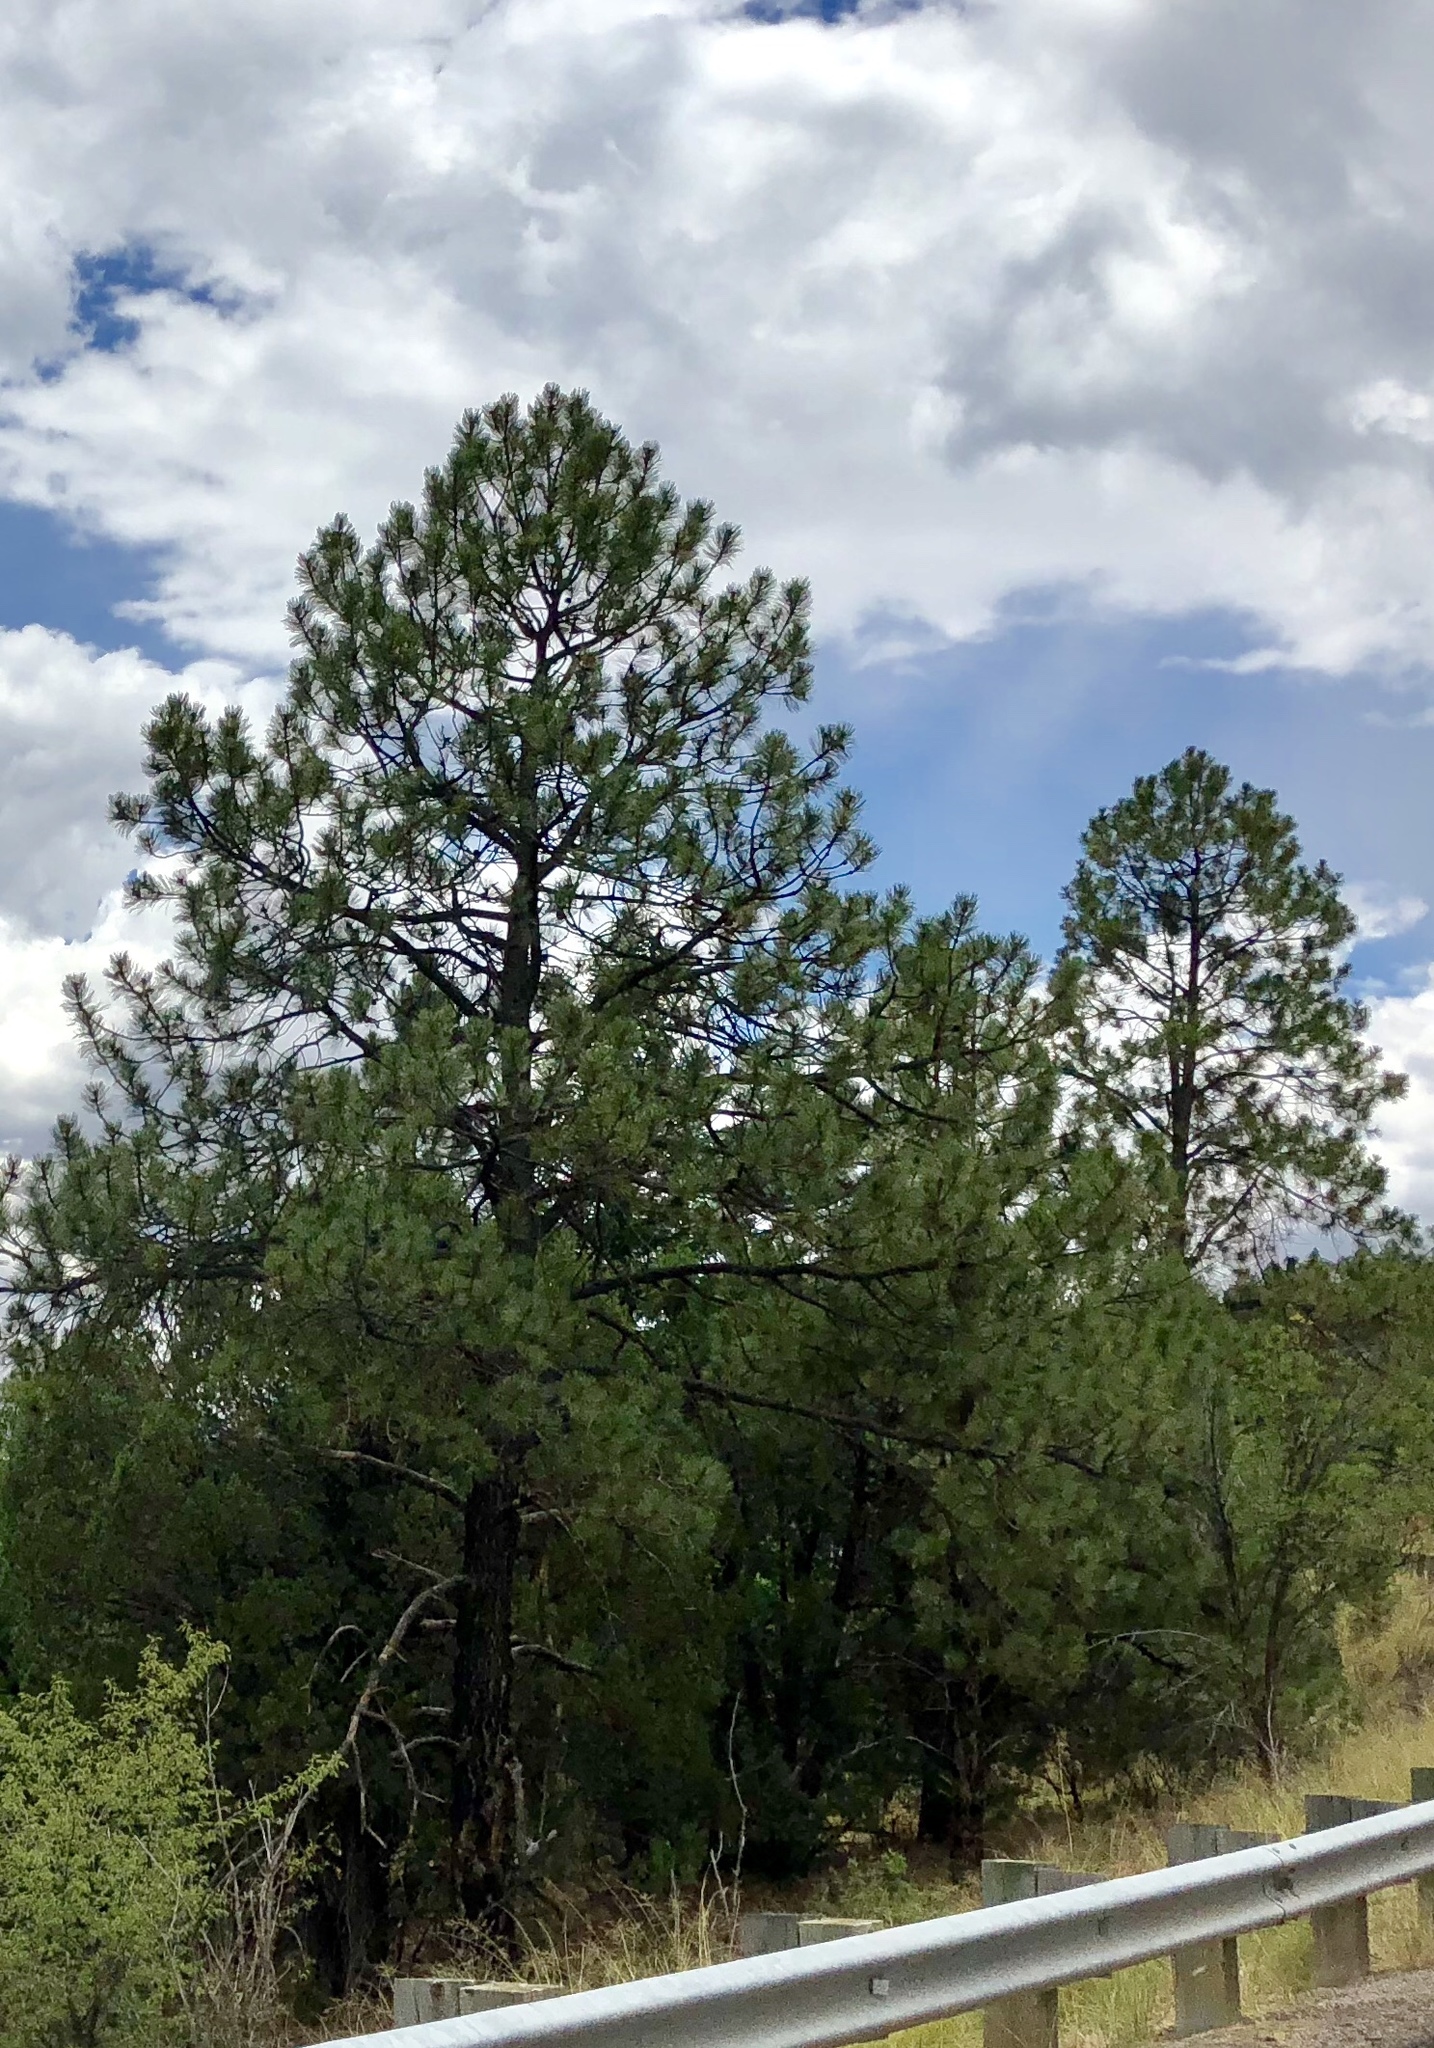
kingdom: Plantae
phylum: Tracheophyta
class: Pinopsida
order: Pinales
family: Pinaceae
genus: Pinus
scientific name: Pinus ponderosa
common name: Western yellow-pine
